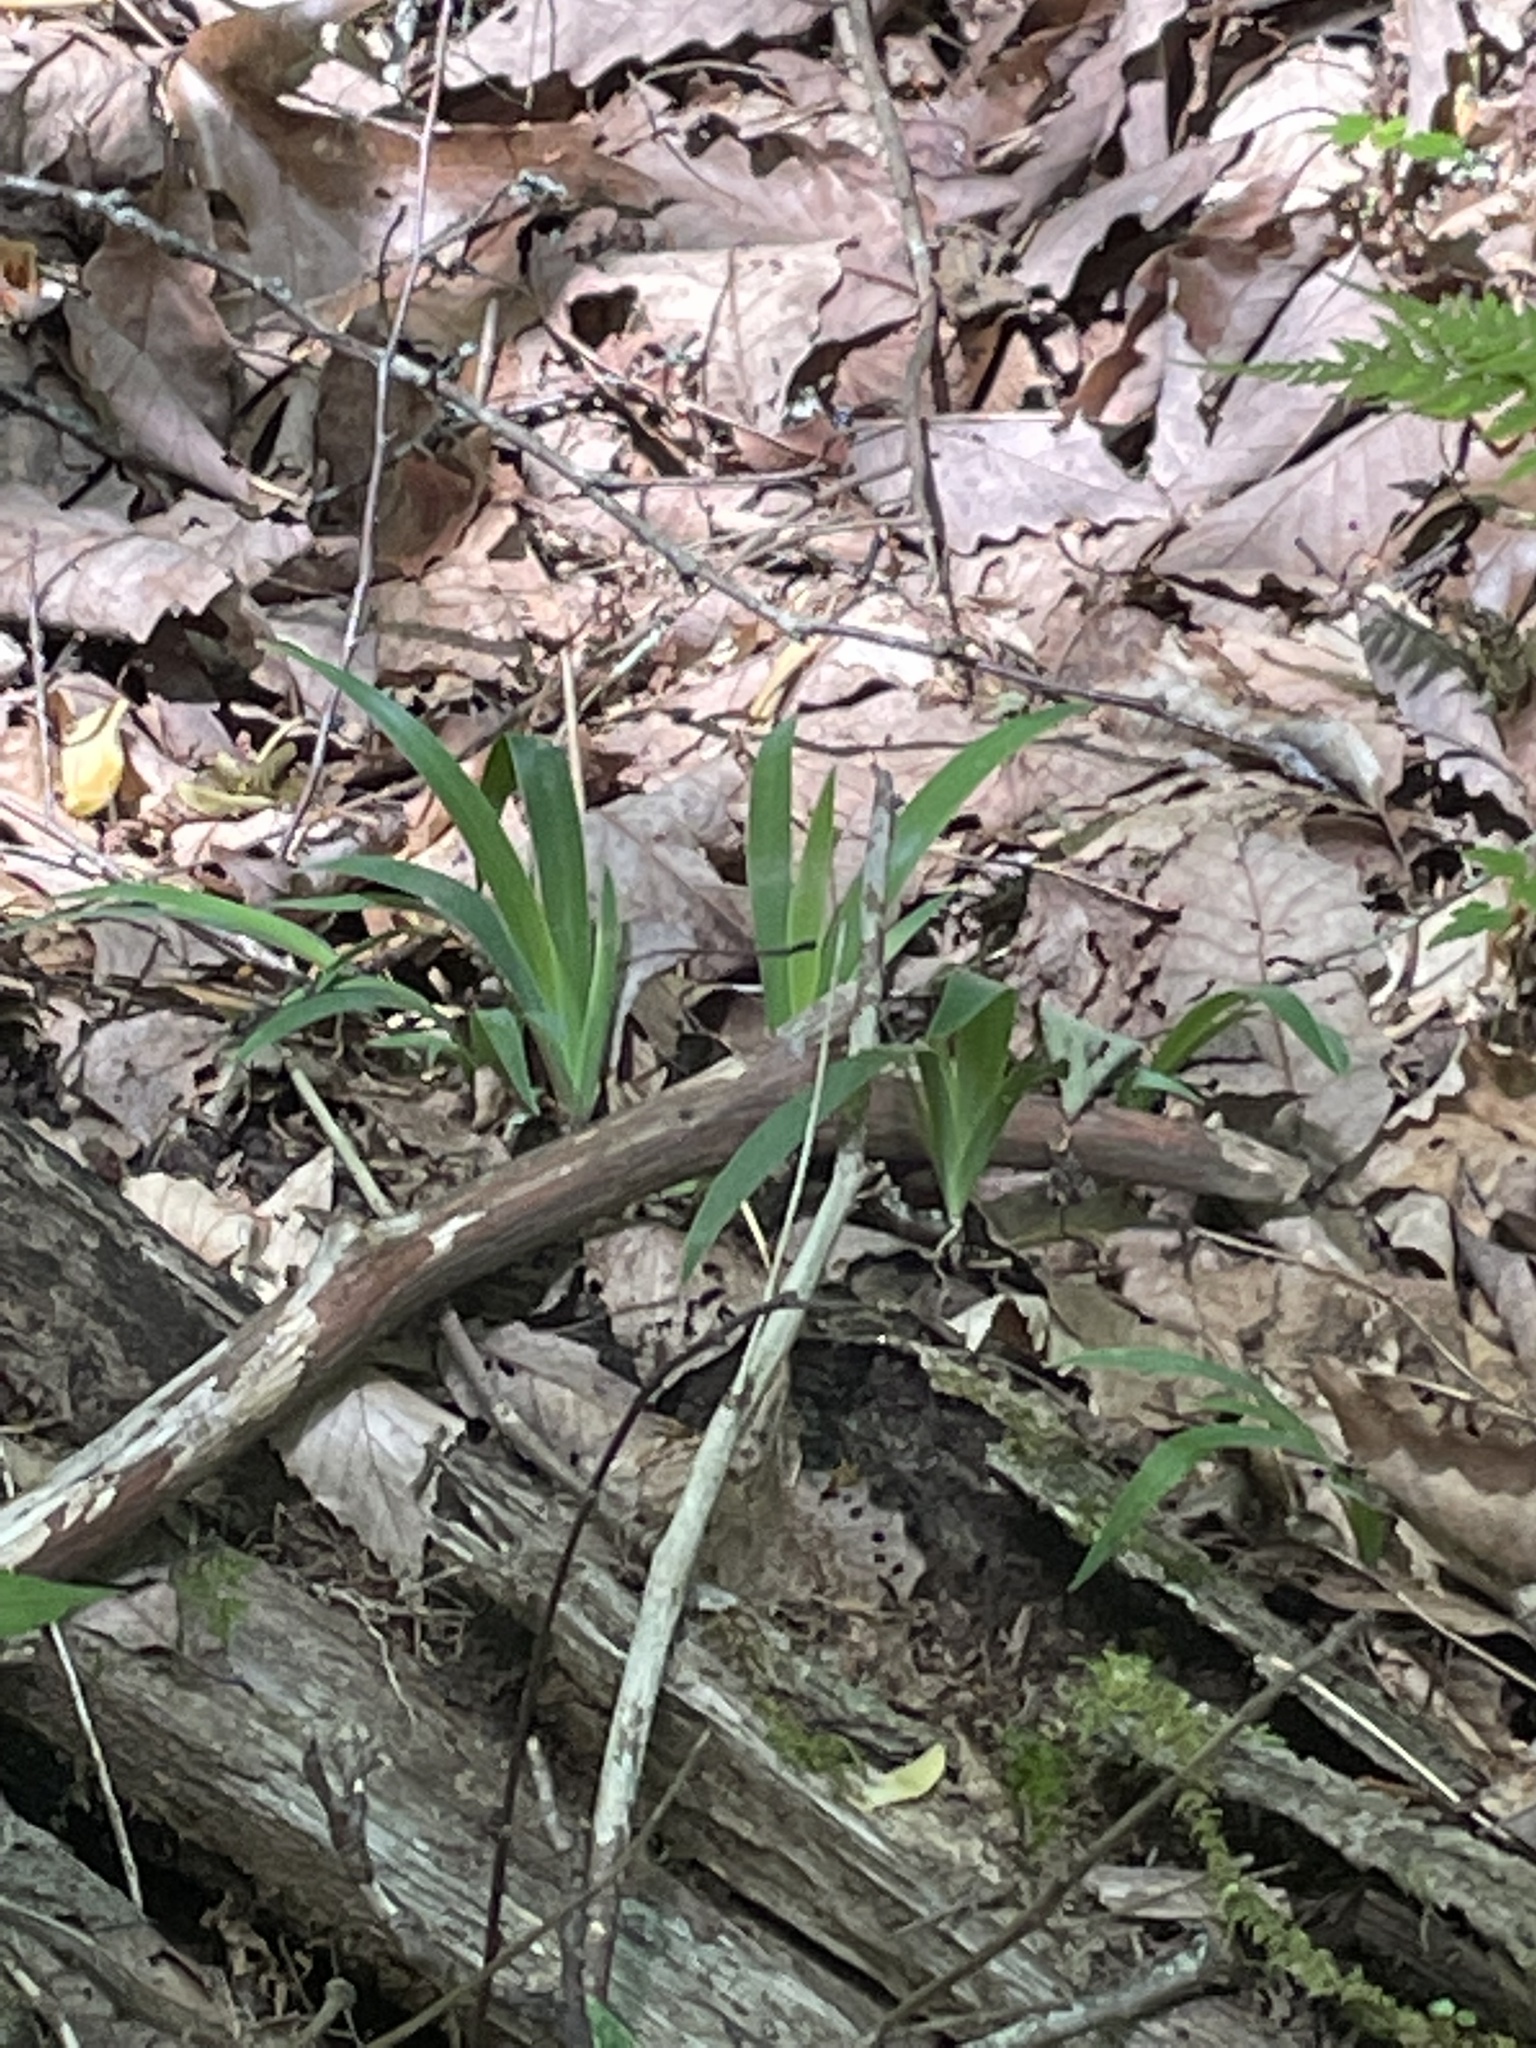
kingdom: Plantae
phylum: Tracheophyta
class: Liliopsida
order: Asparagales
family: Iridaceae
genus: Iris
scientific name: Iris cristata
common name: Crested iris
